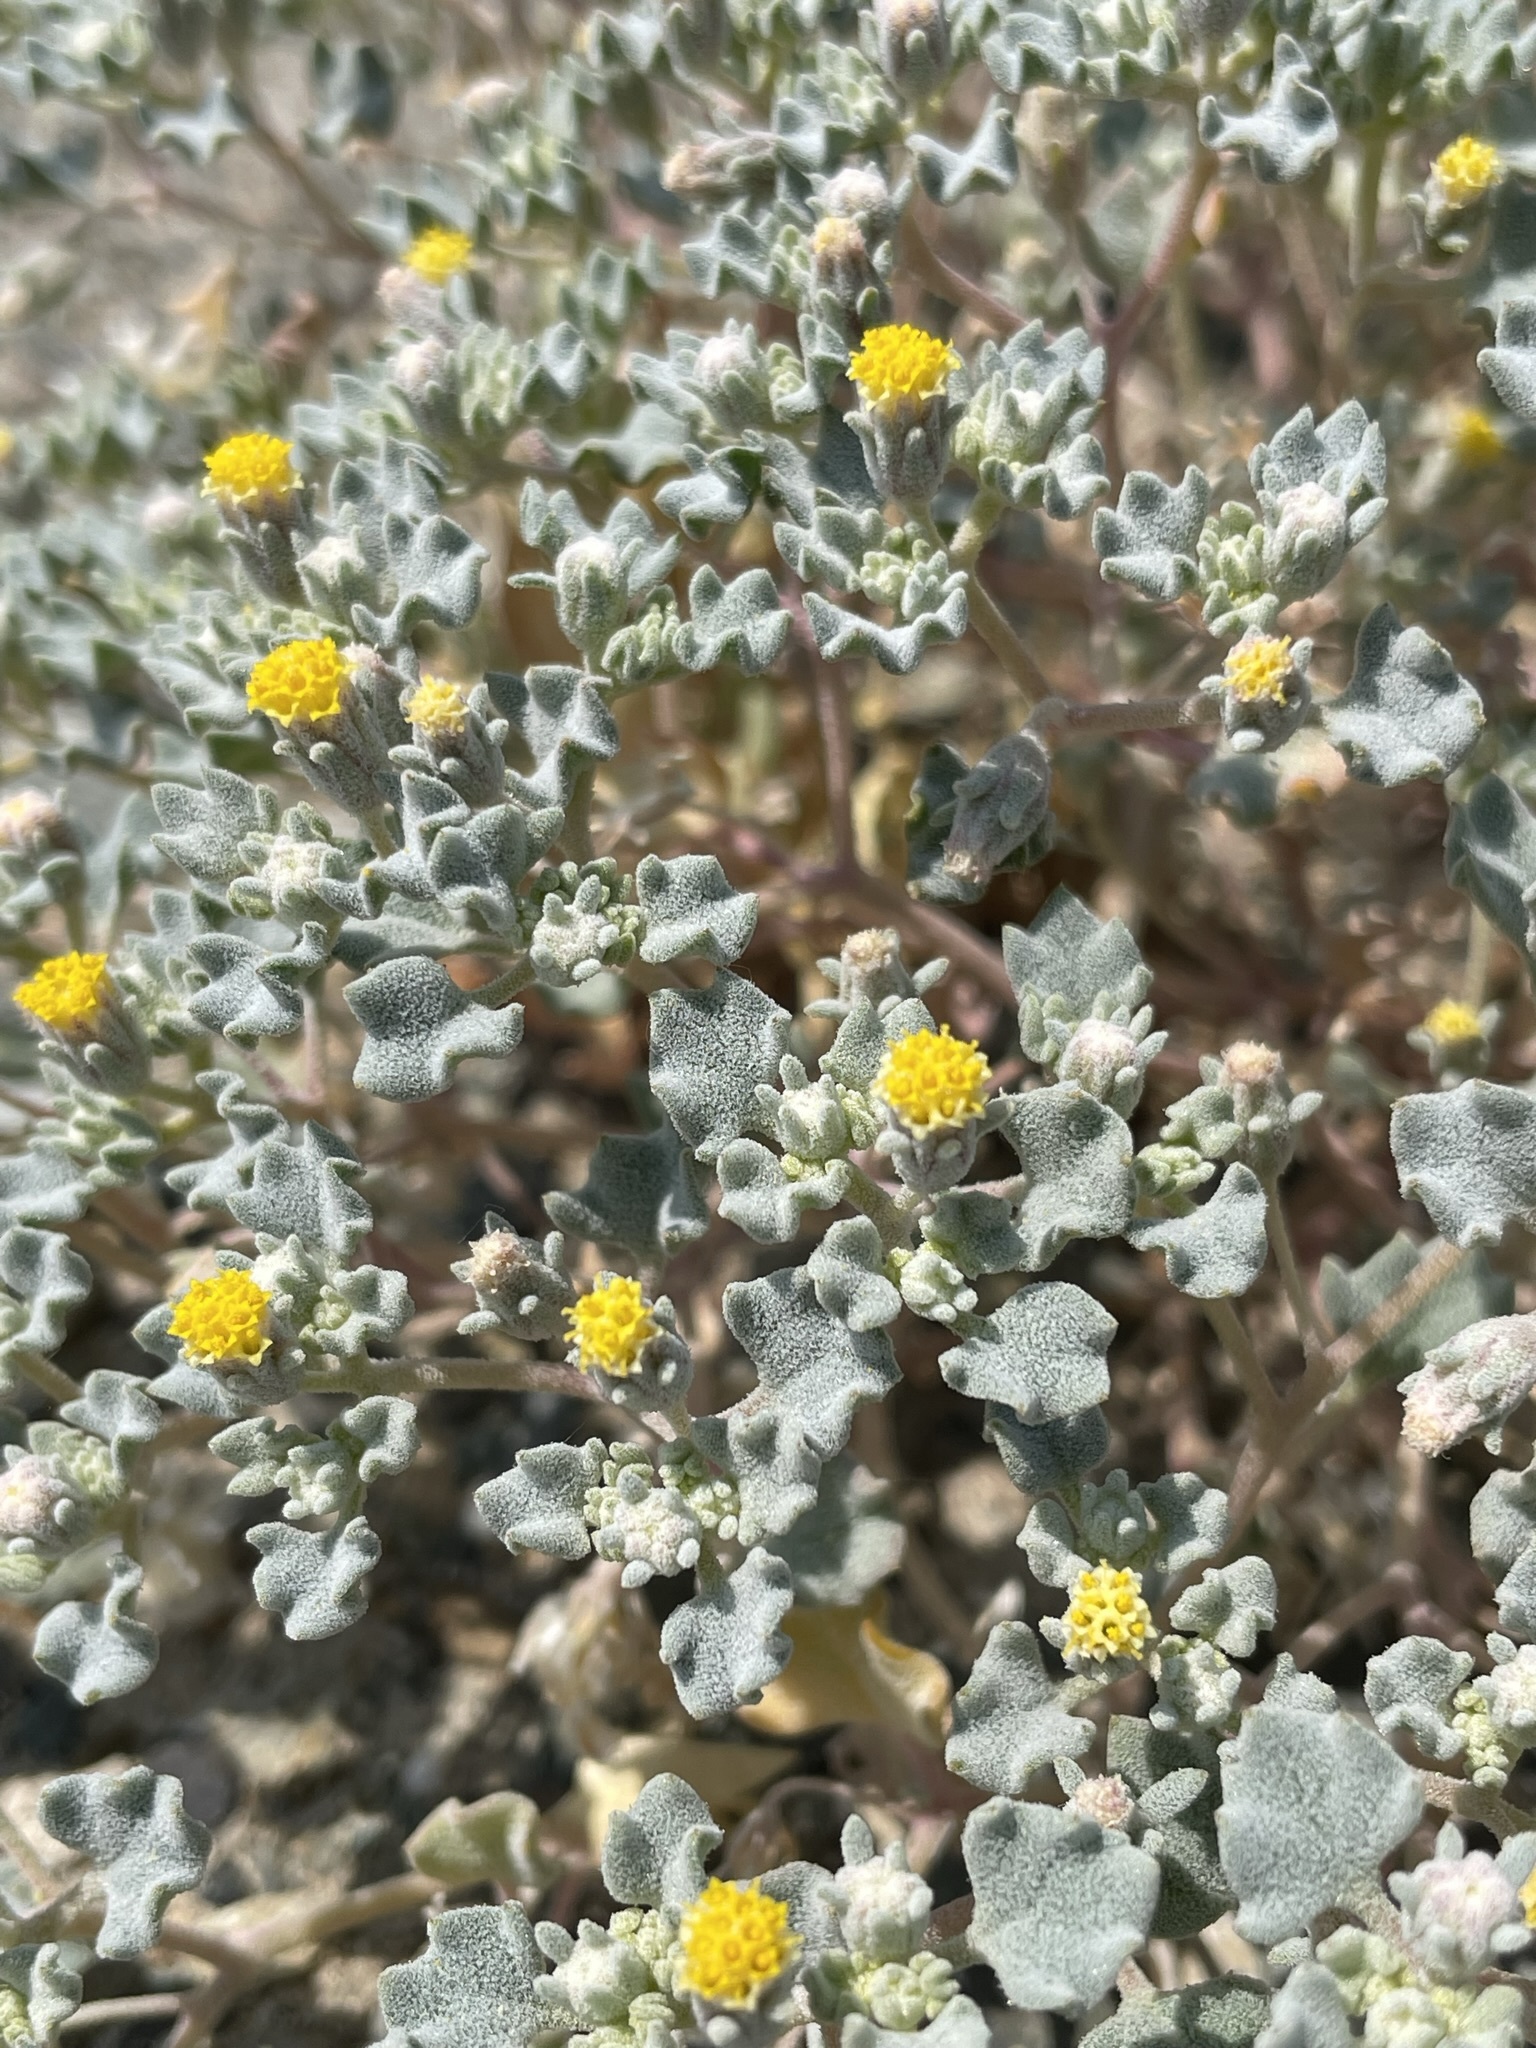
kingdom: Plantae
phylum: Tracheophyta
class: Magnoliopsida
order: Asterales
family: Asteraceae
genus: Psathyrotes
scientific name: Psathyrotes annua
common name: Mealy rosettes
